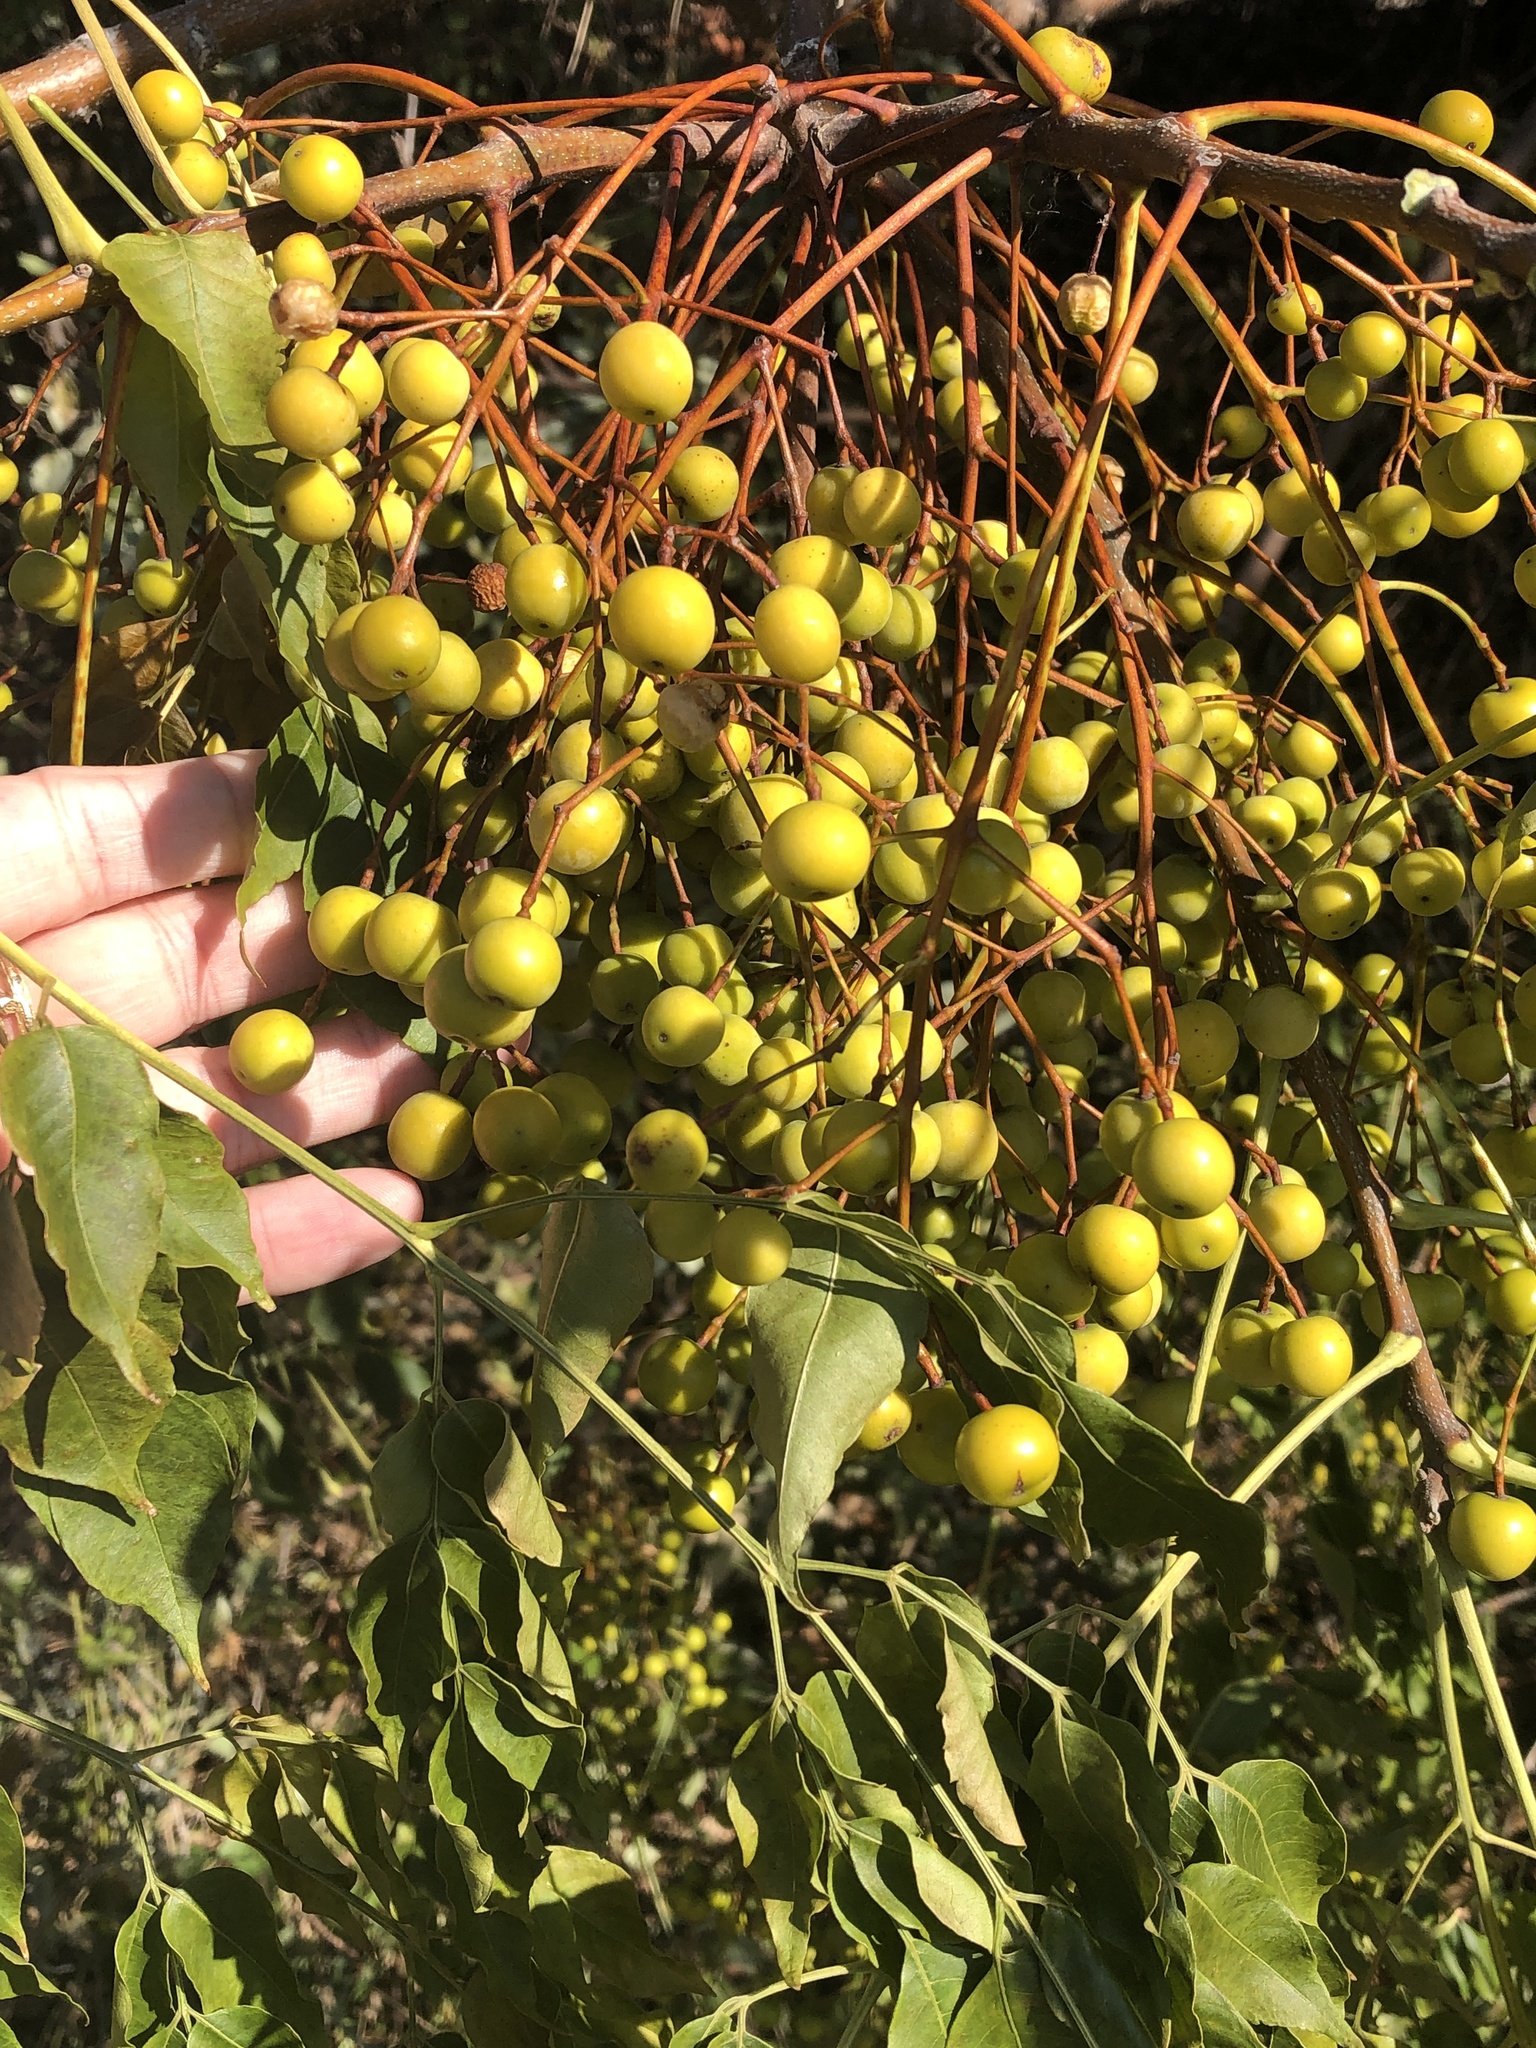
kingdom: Plantae
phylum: Tracheophyta
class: Magnoliopsida
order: Sapindales
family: Meliaceae
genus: Melia
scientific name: Melia azedarach
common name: Chinaberrytree
